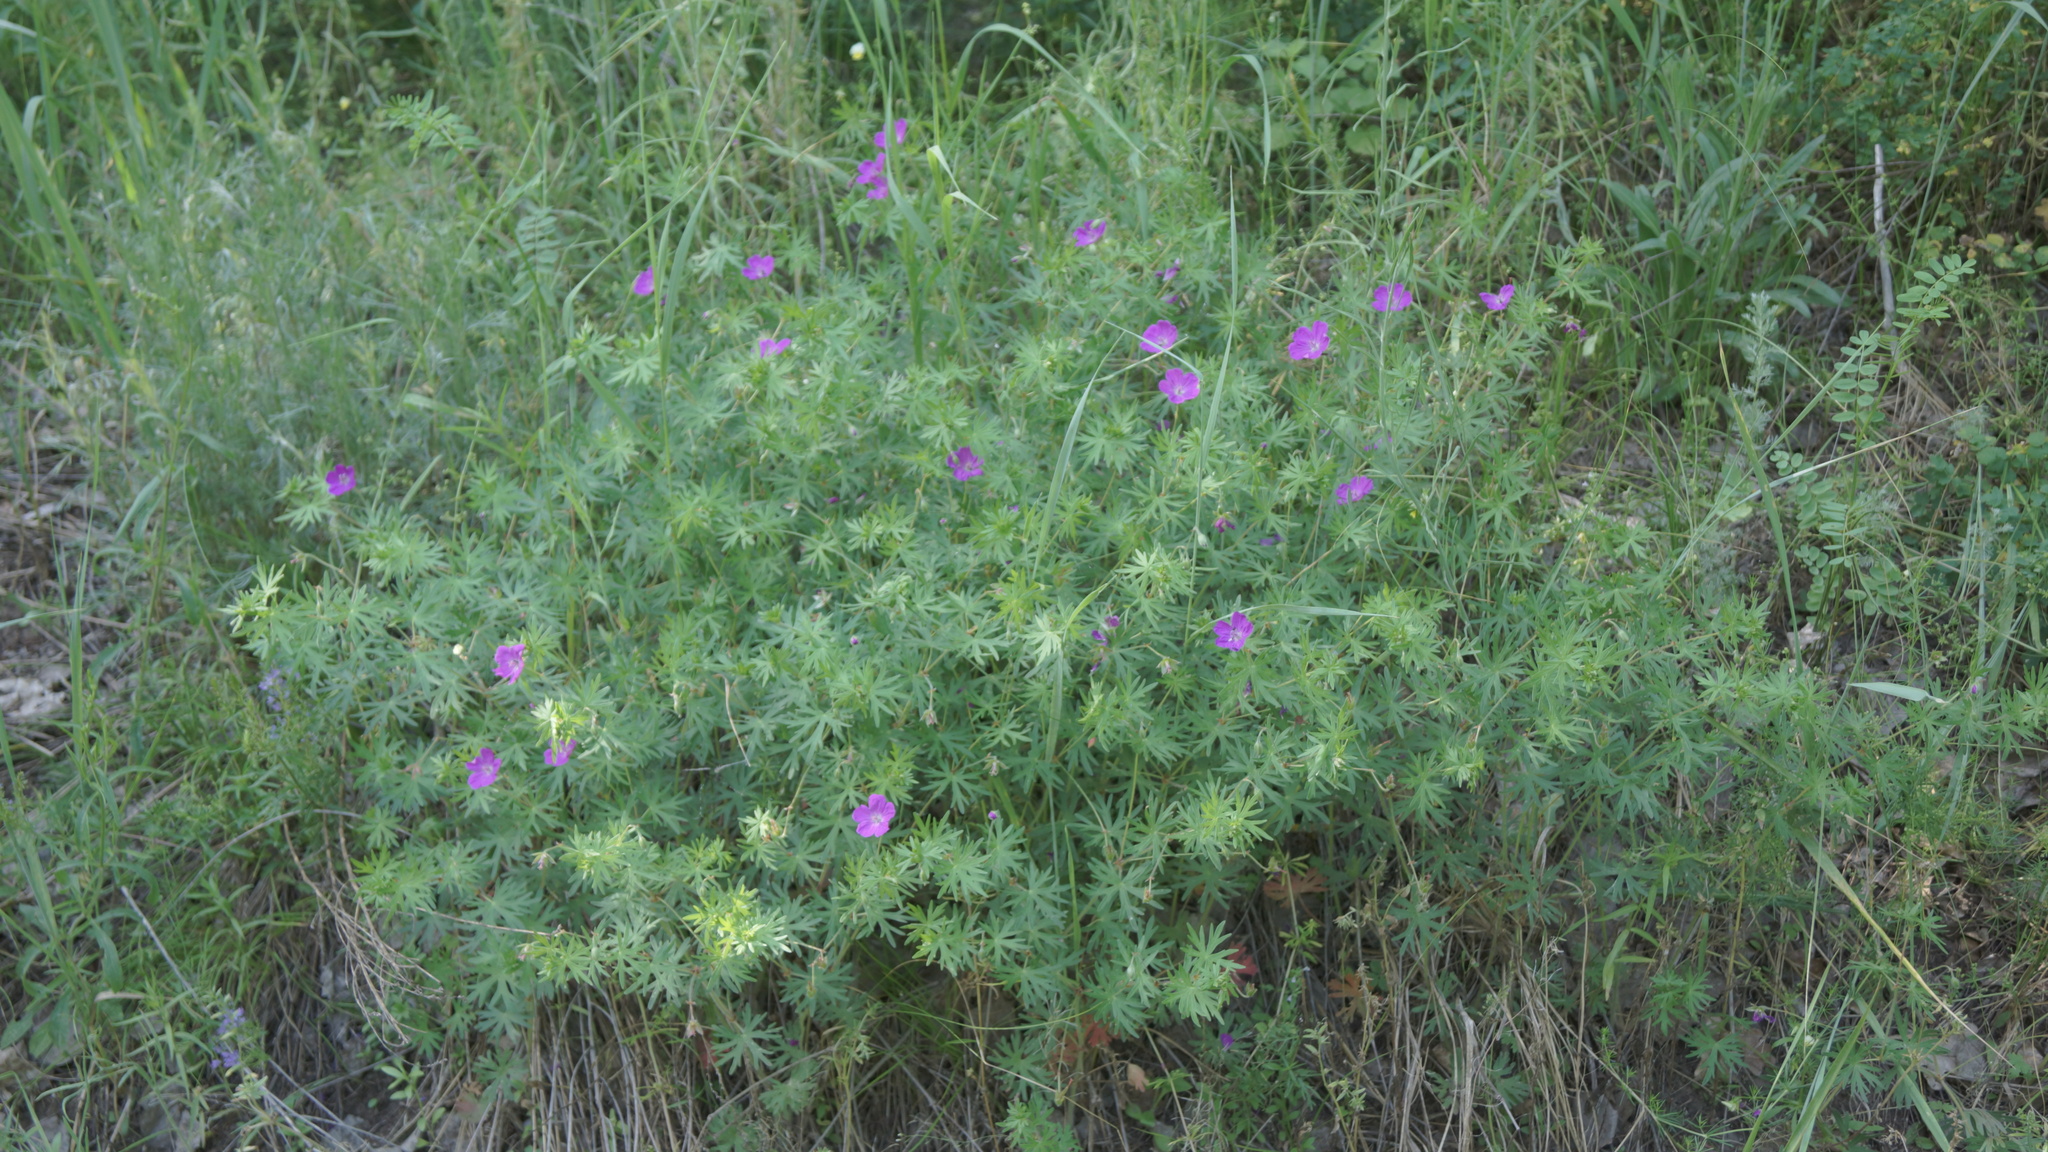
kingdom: Plantae
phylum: Tracheophyta
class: Magnoliopsida
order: Geraniales
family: Geraniaceae
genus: Geranium
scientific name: Geranium sanguineum
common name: Bloody crane's-bill
